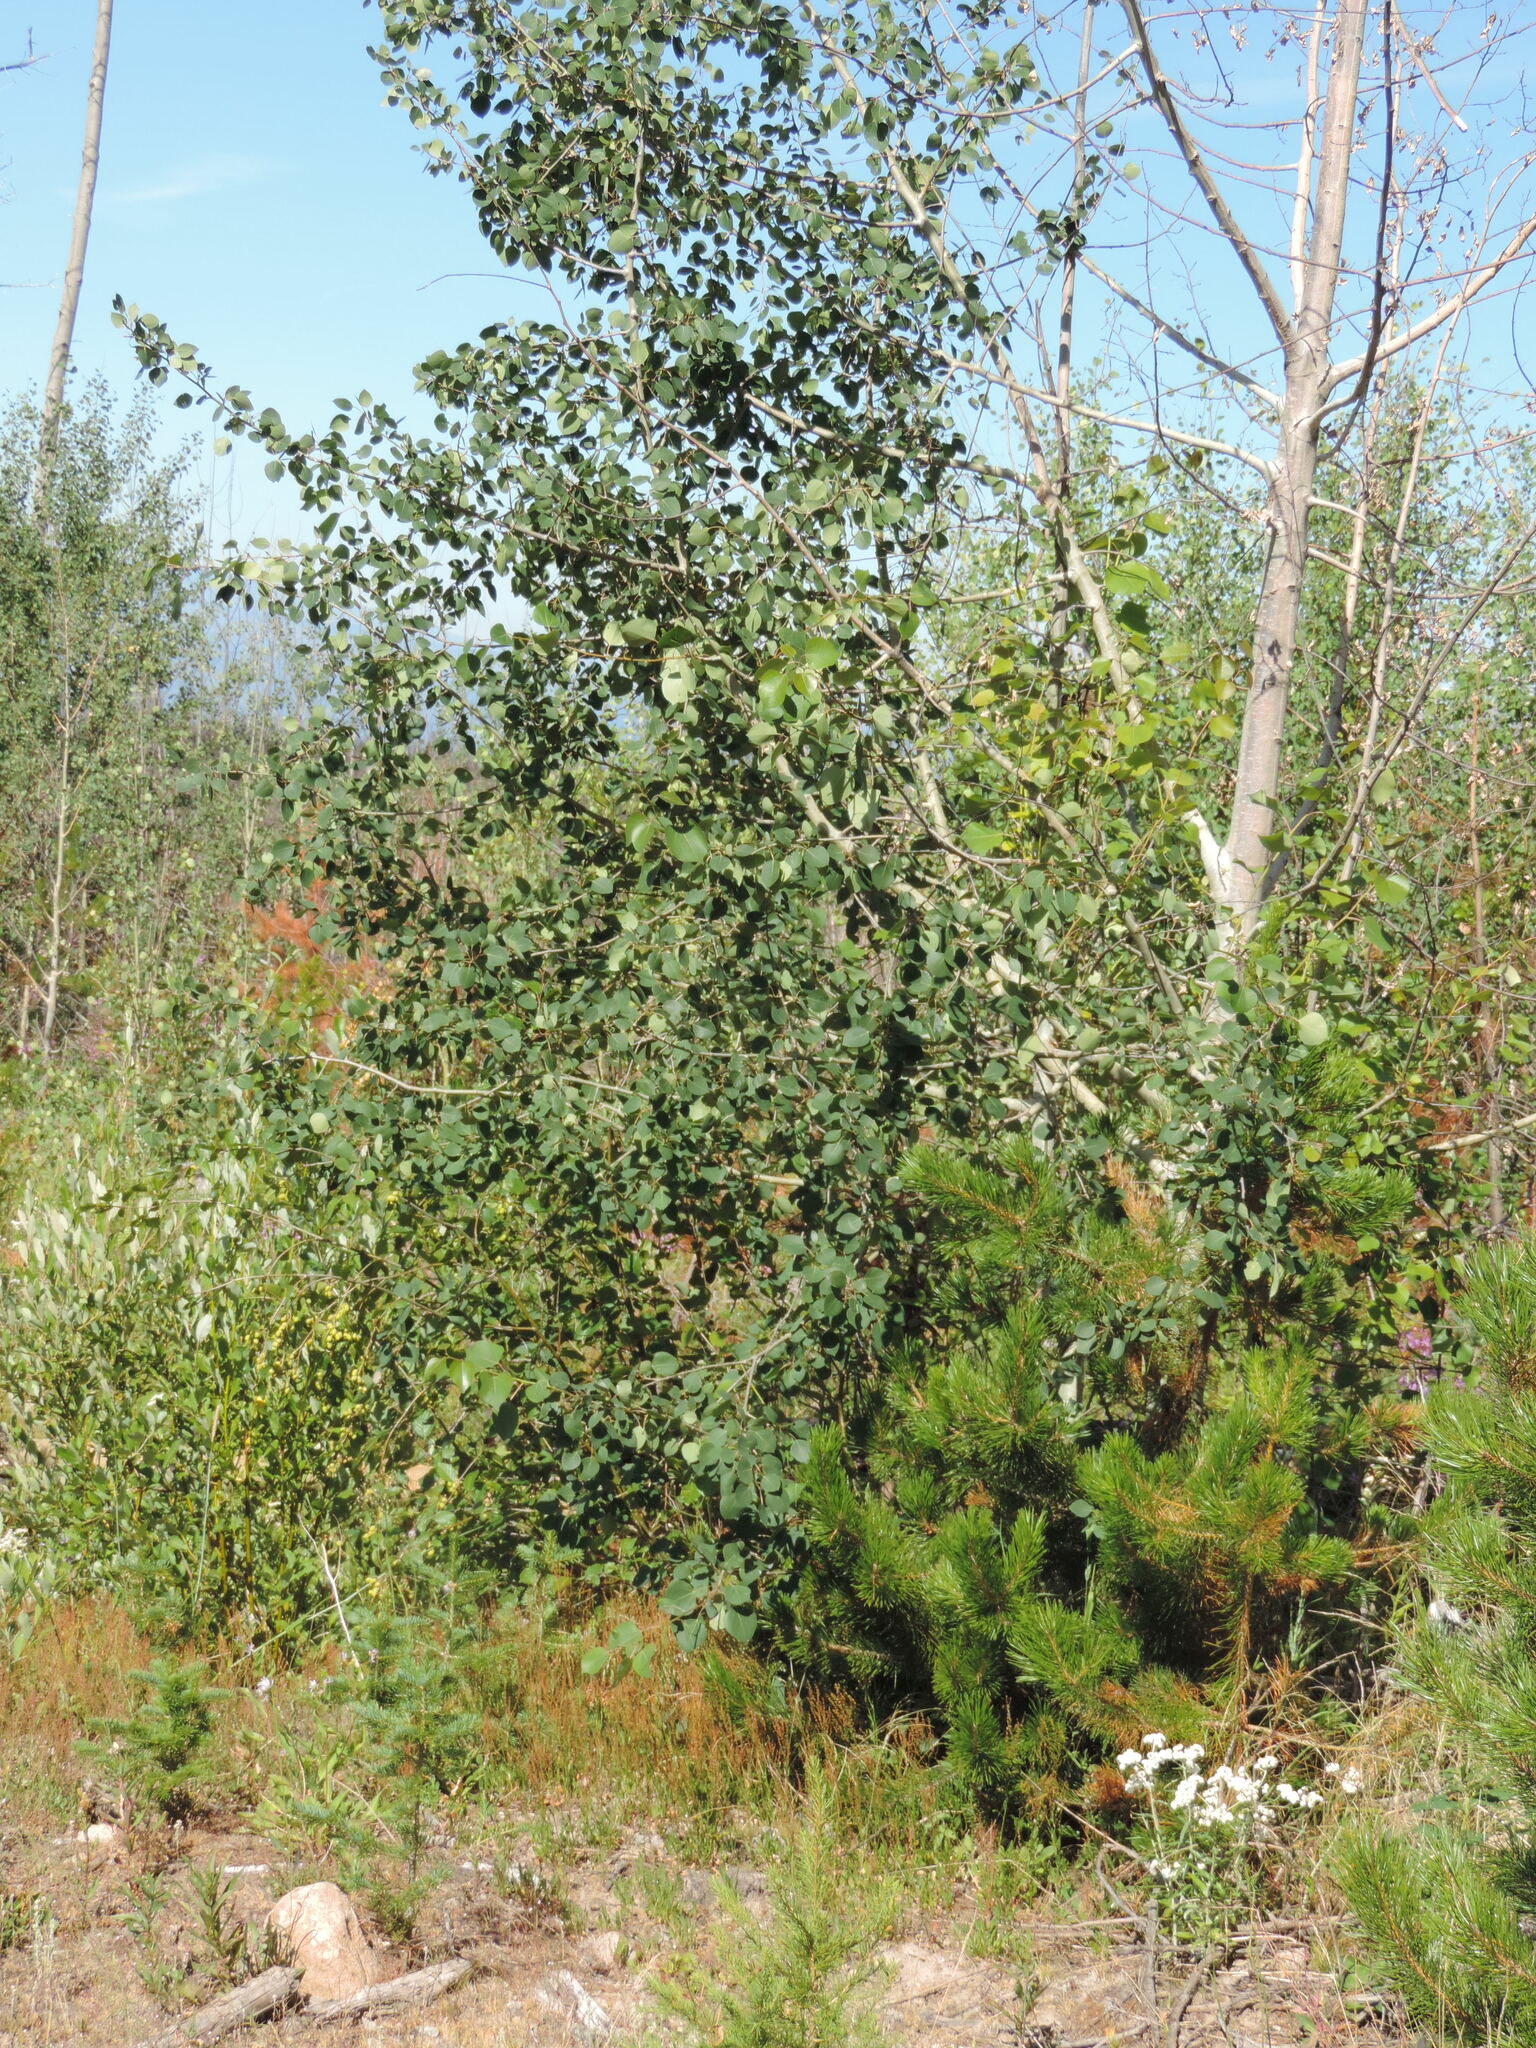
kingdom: Plantae
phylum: Tracheophyta
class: Magnoliopsida
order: Malpighiales
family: Salicaceae
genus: Populus
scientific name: Populus tremuloides
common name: Quaking aspen
